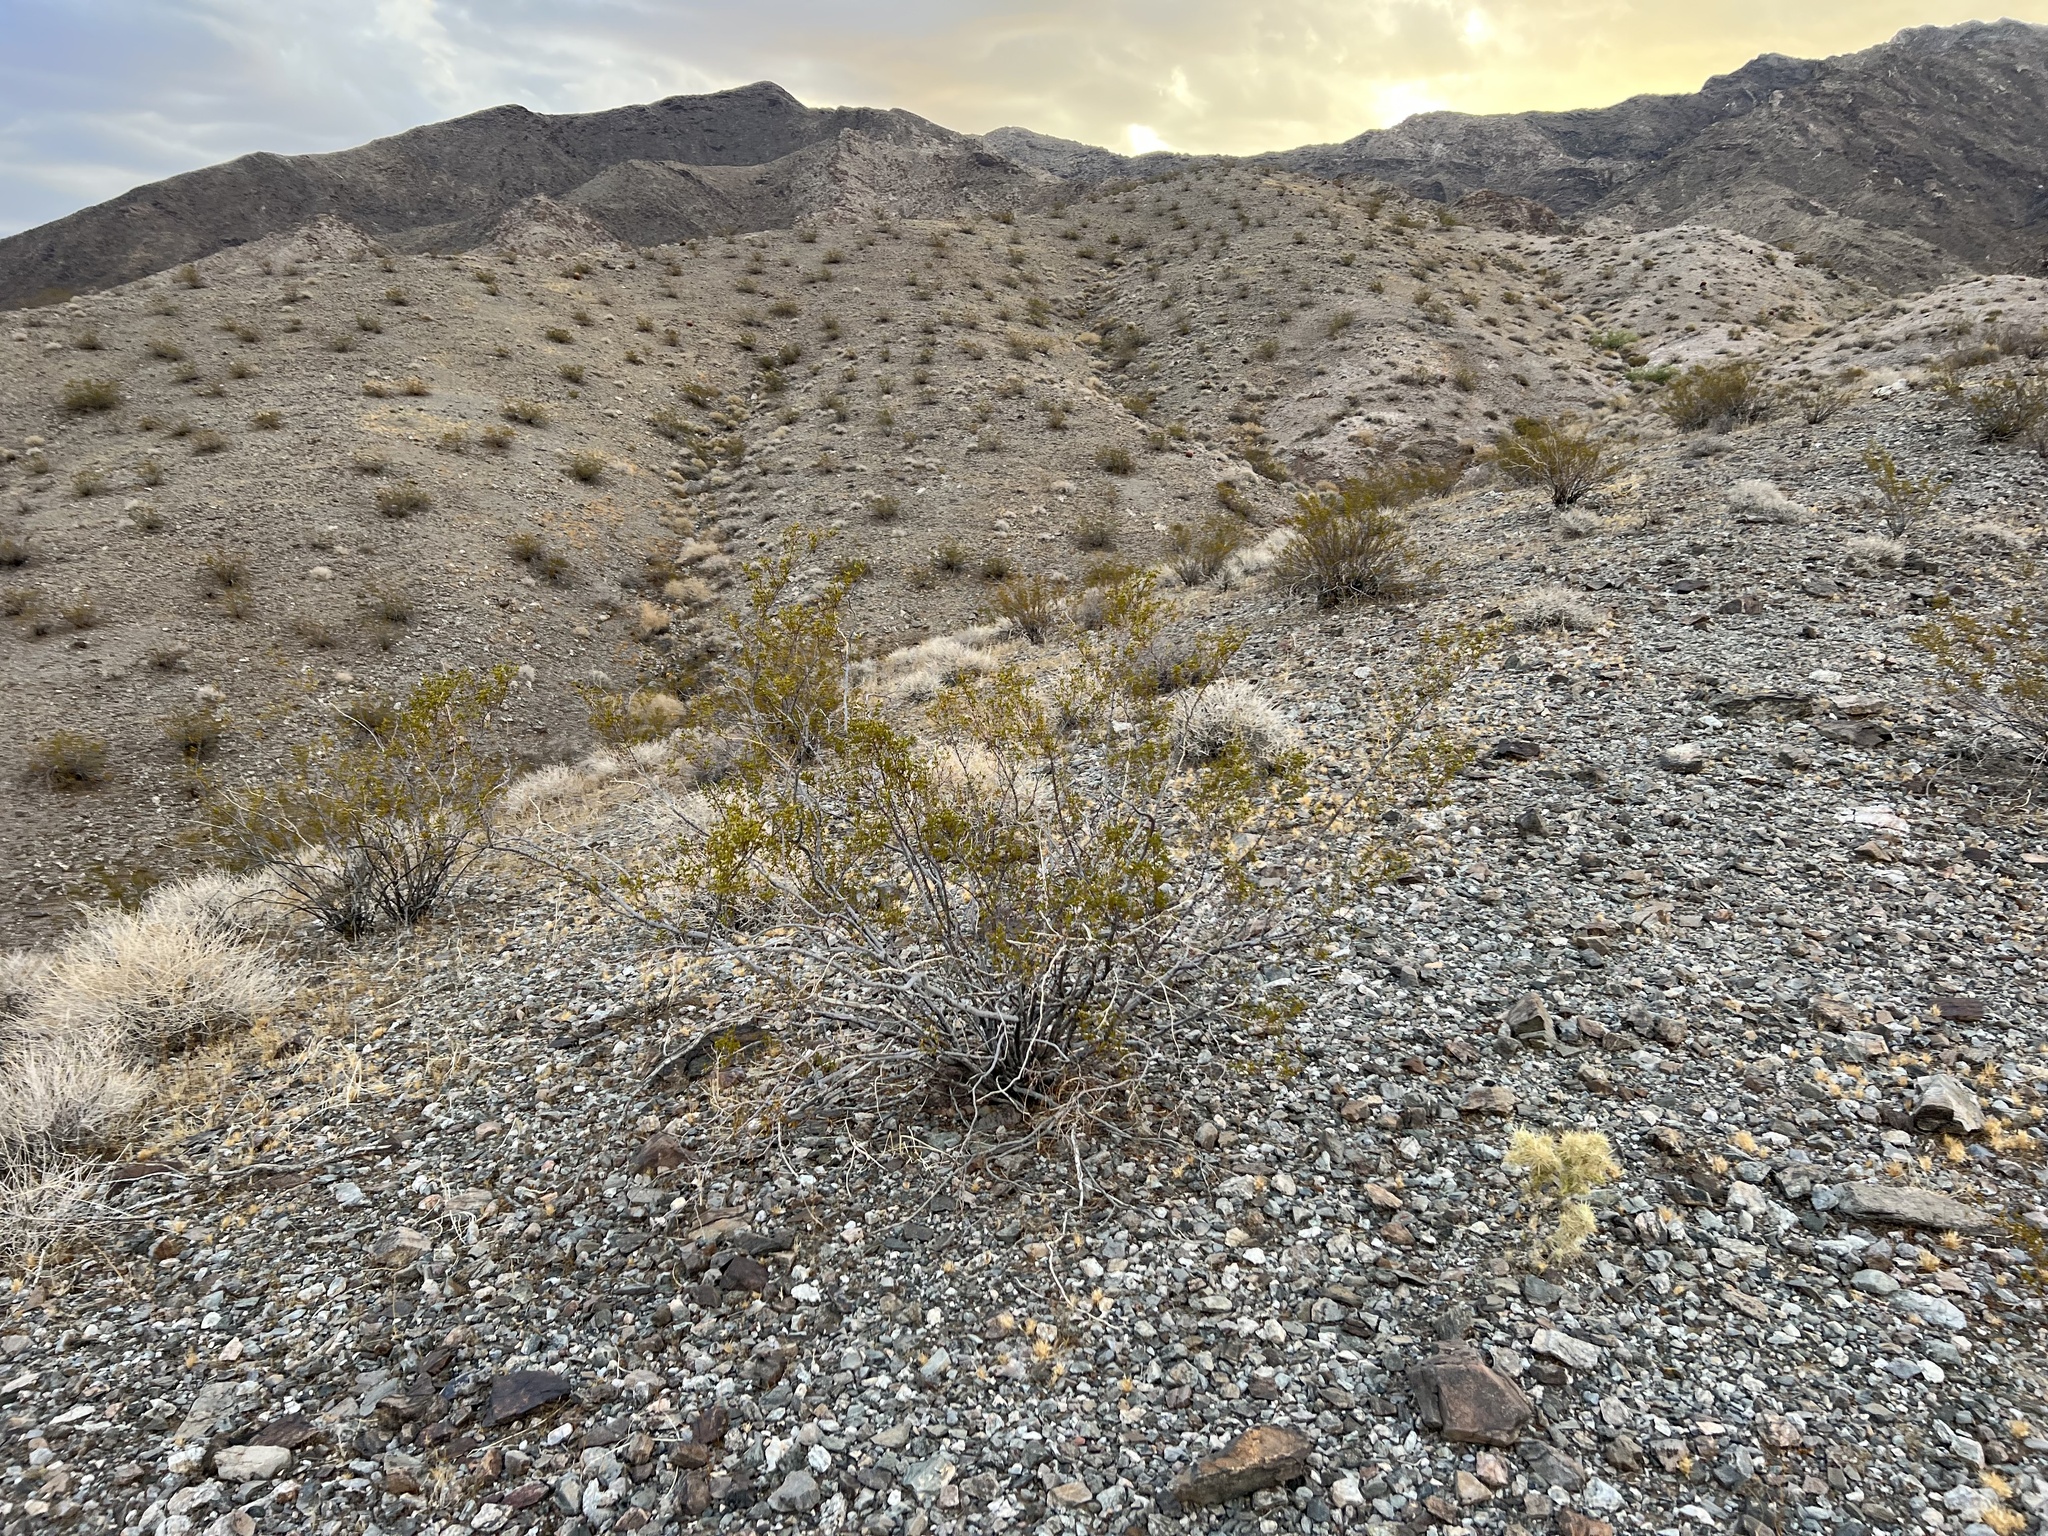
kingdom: Plantae
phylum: Tracheophyta
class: Magnoliopsida
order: Zygophyllales
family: Zygophyllaceae
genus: Larrea
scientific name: Larrea tridentata
